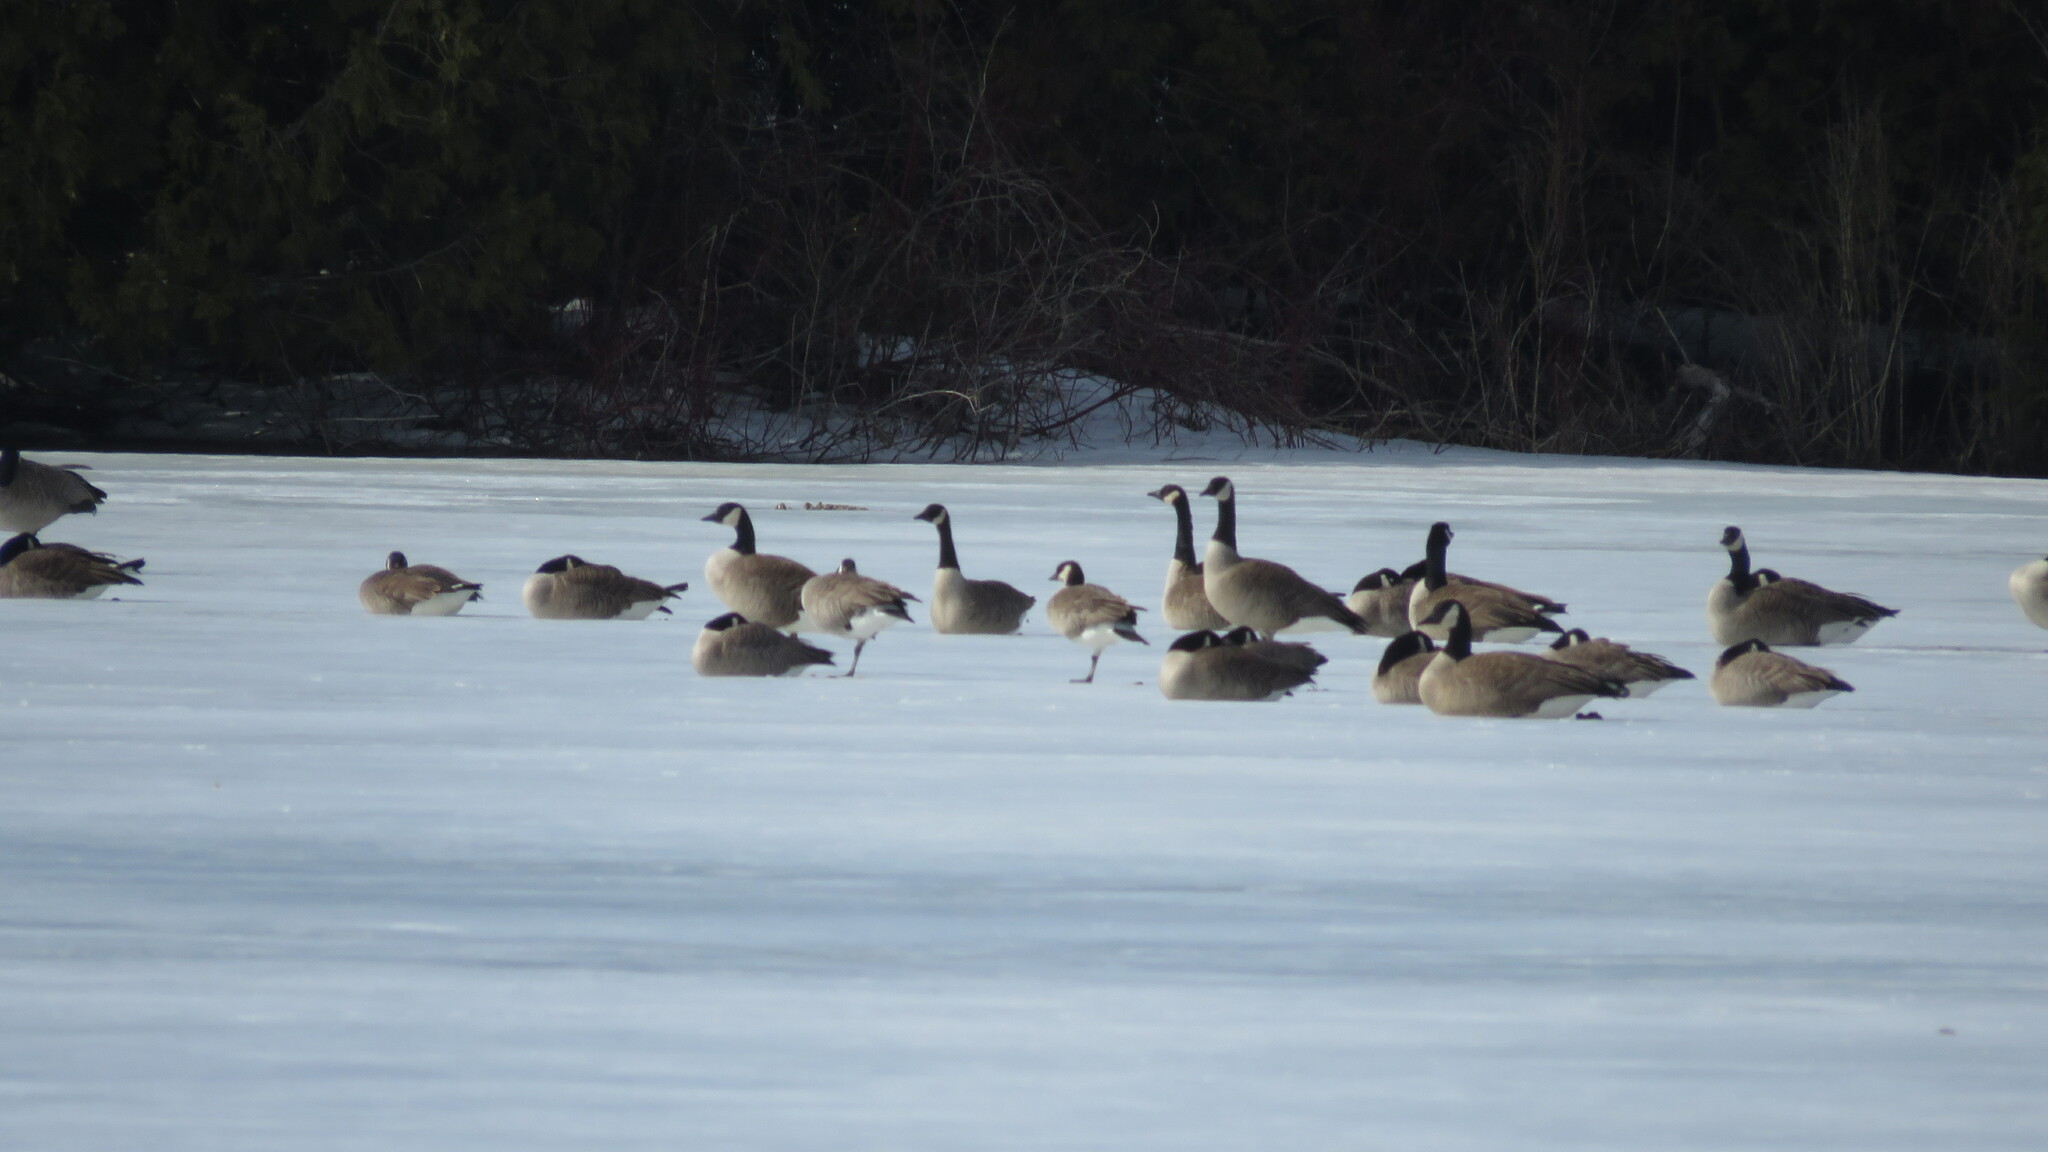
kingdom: Animalia
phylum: Chordata
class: Aves
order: Anseriformes
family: Anatidae
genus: Branta
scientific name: Branta hutchinsii
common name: Cackling goose
